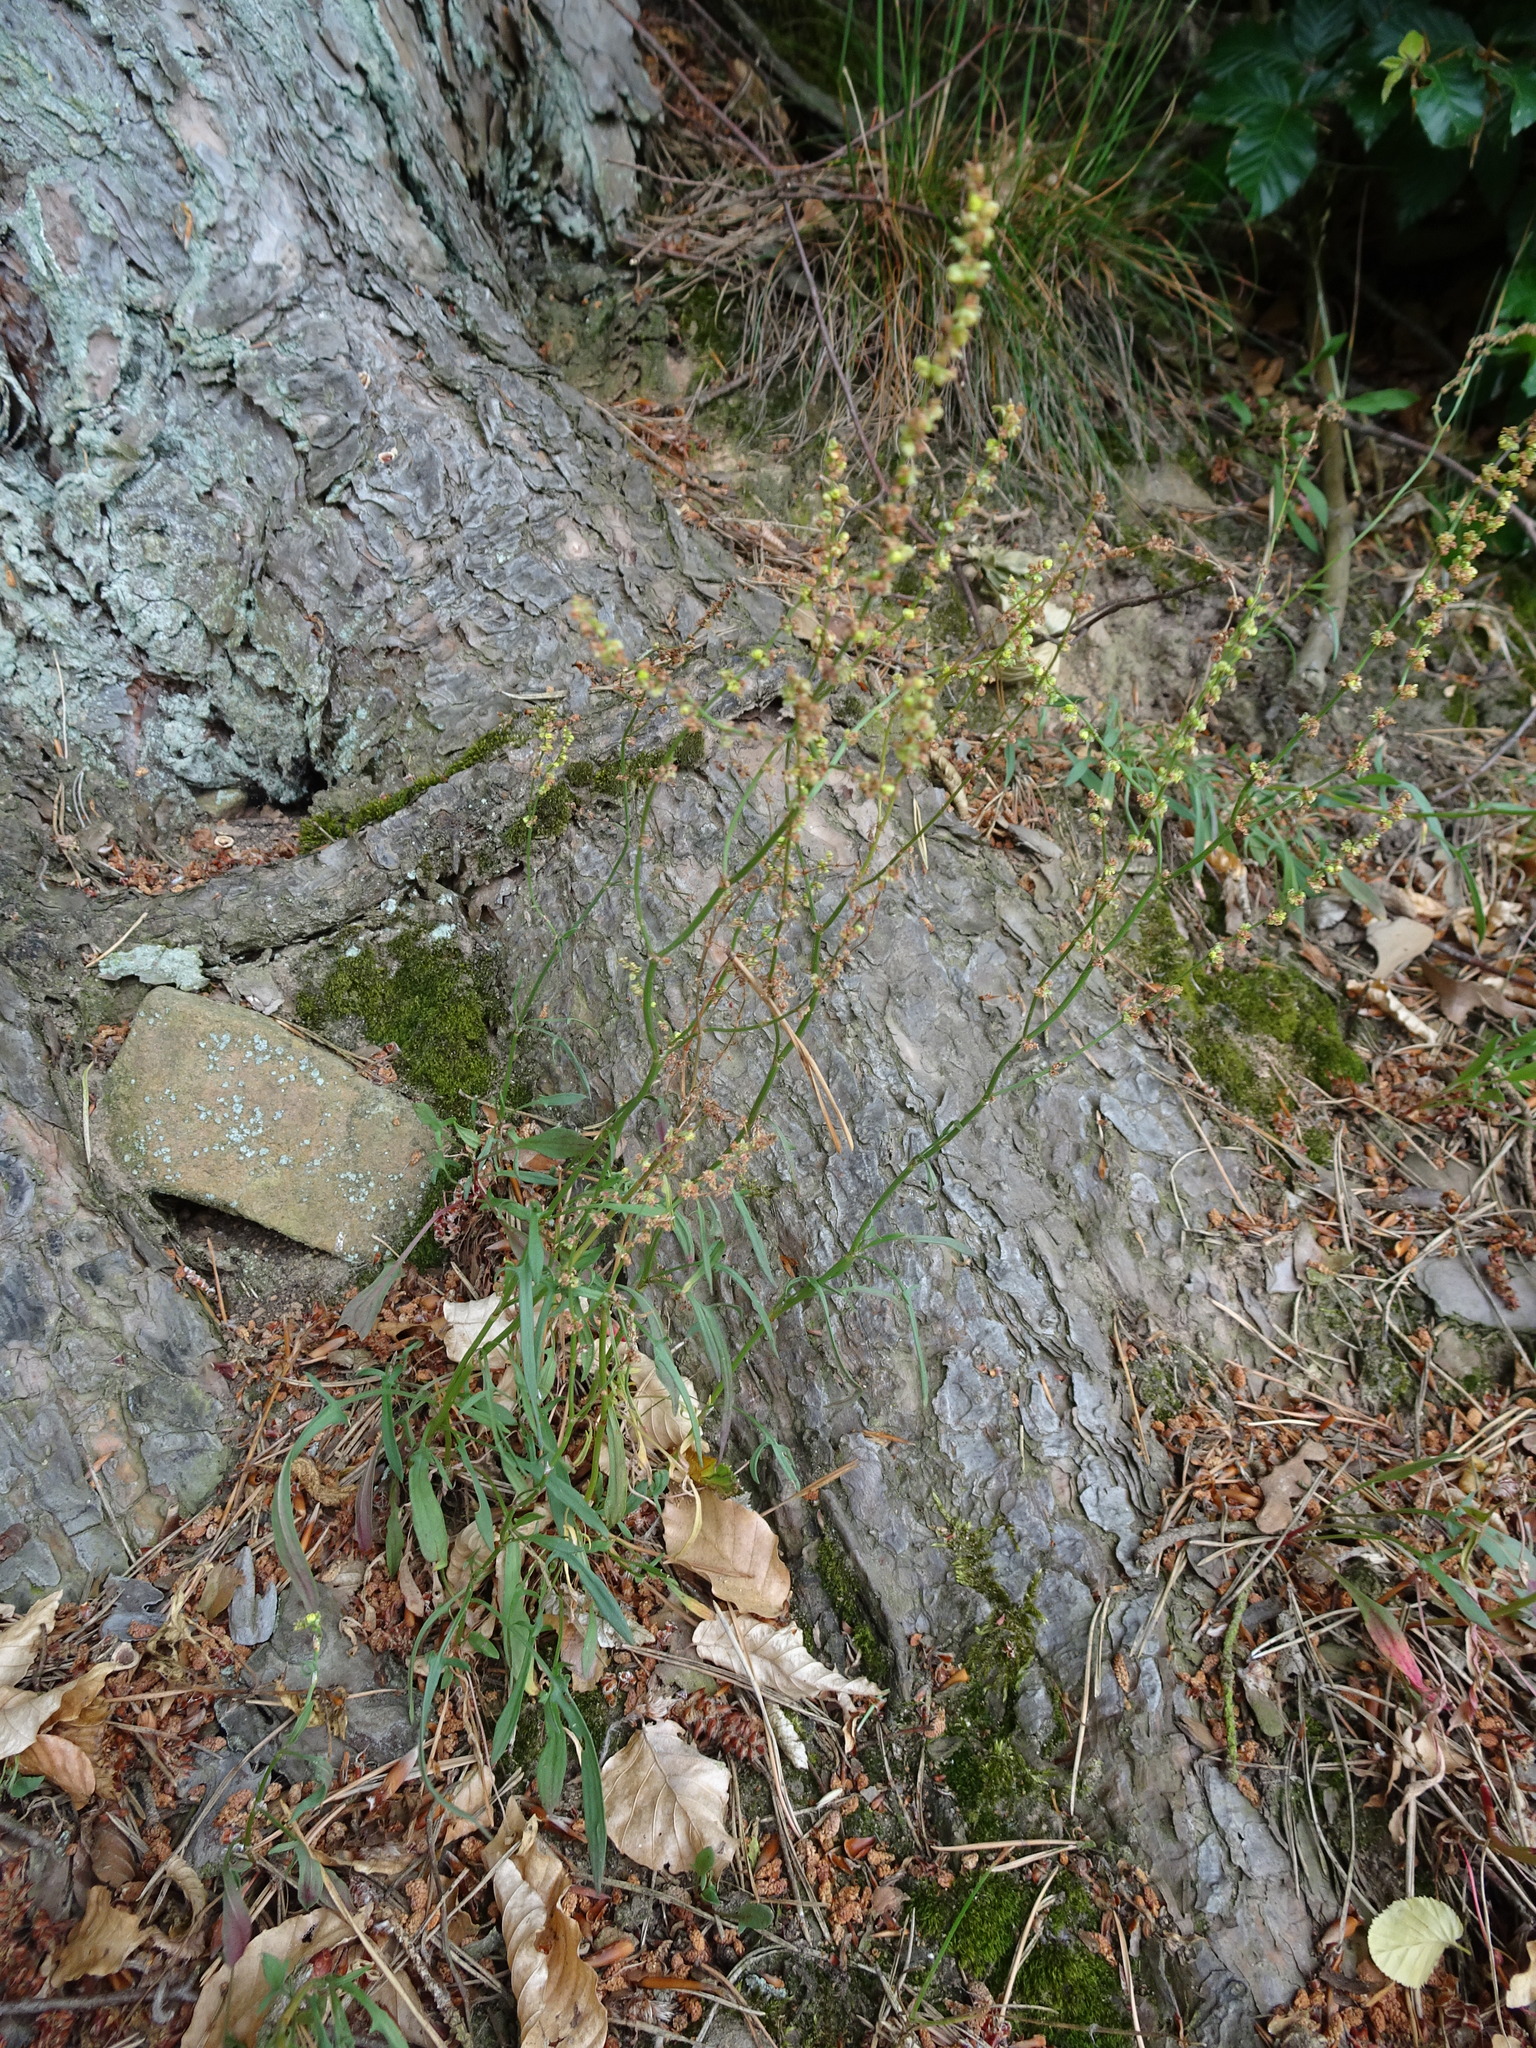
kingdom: Plantae
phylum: Tracheophyta
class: Magnoliopsida
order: Caryophyllales
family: Polygonaceae
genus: Rumex
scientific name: Rumex acetosella
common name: Common sheep sorrel
